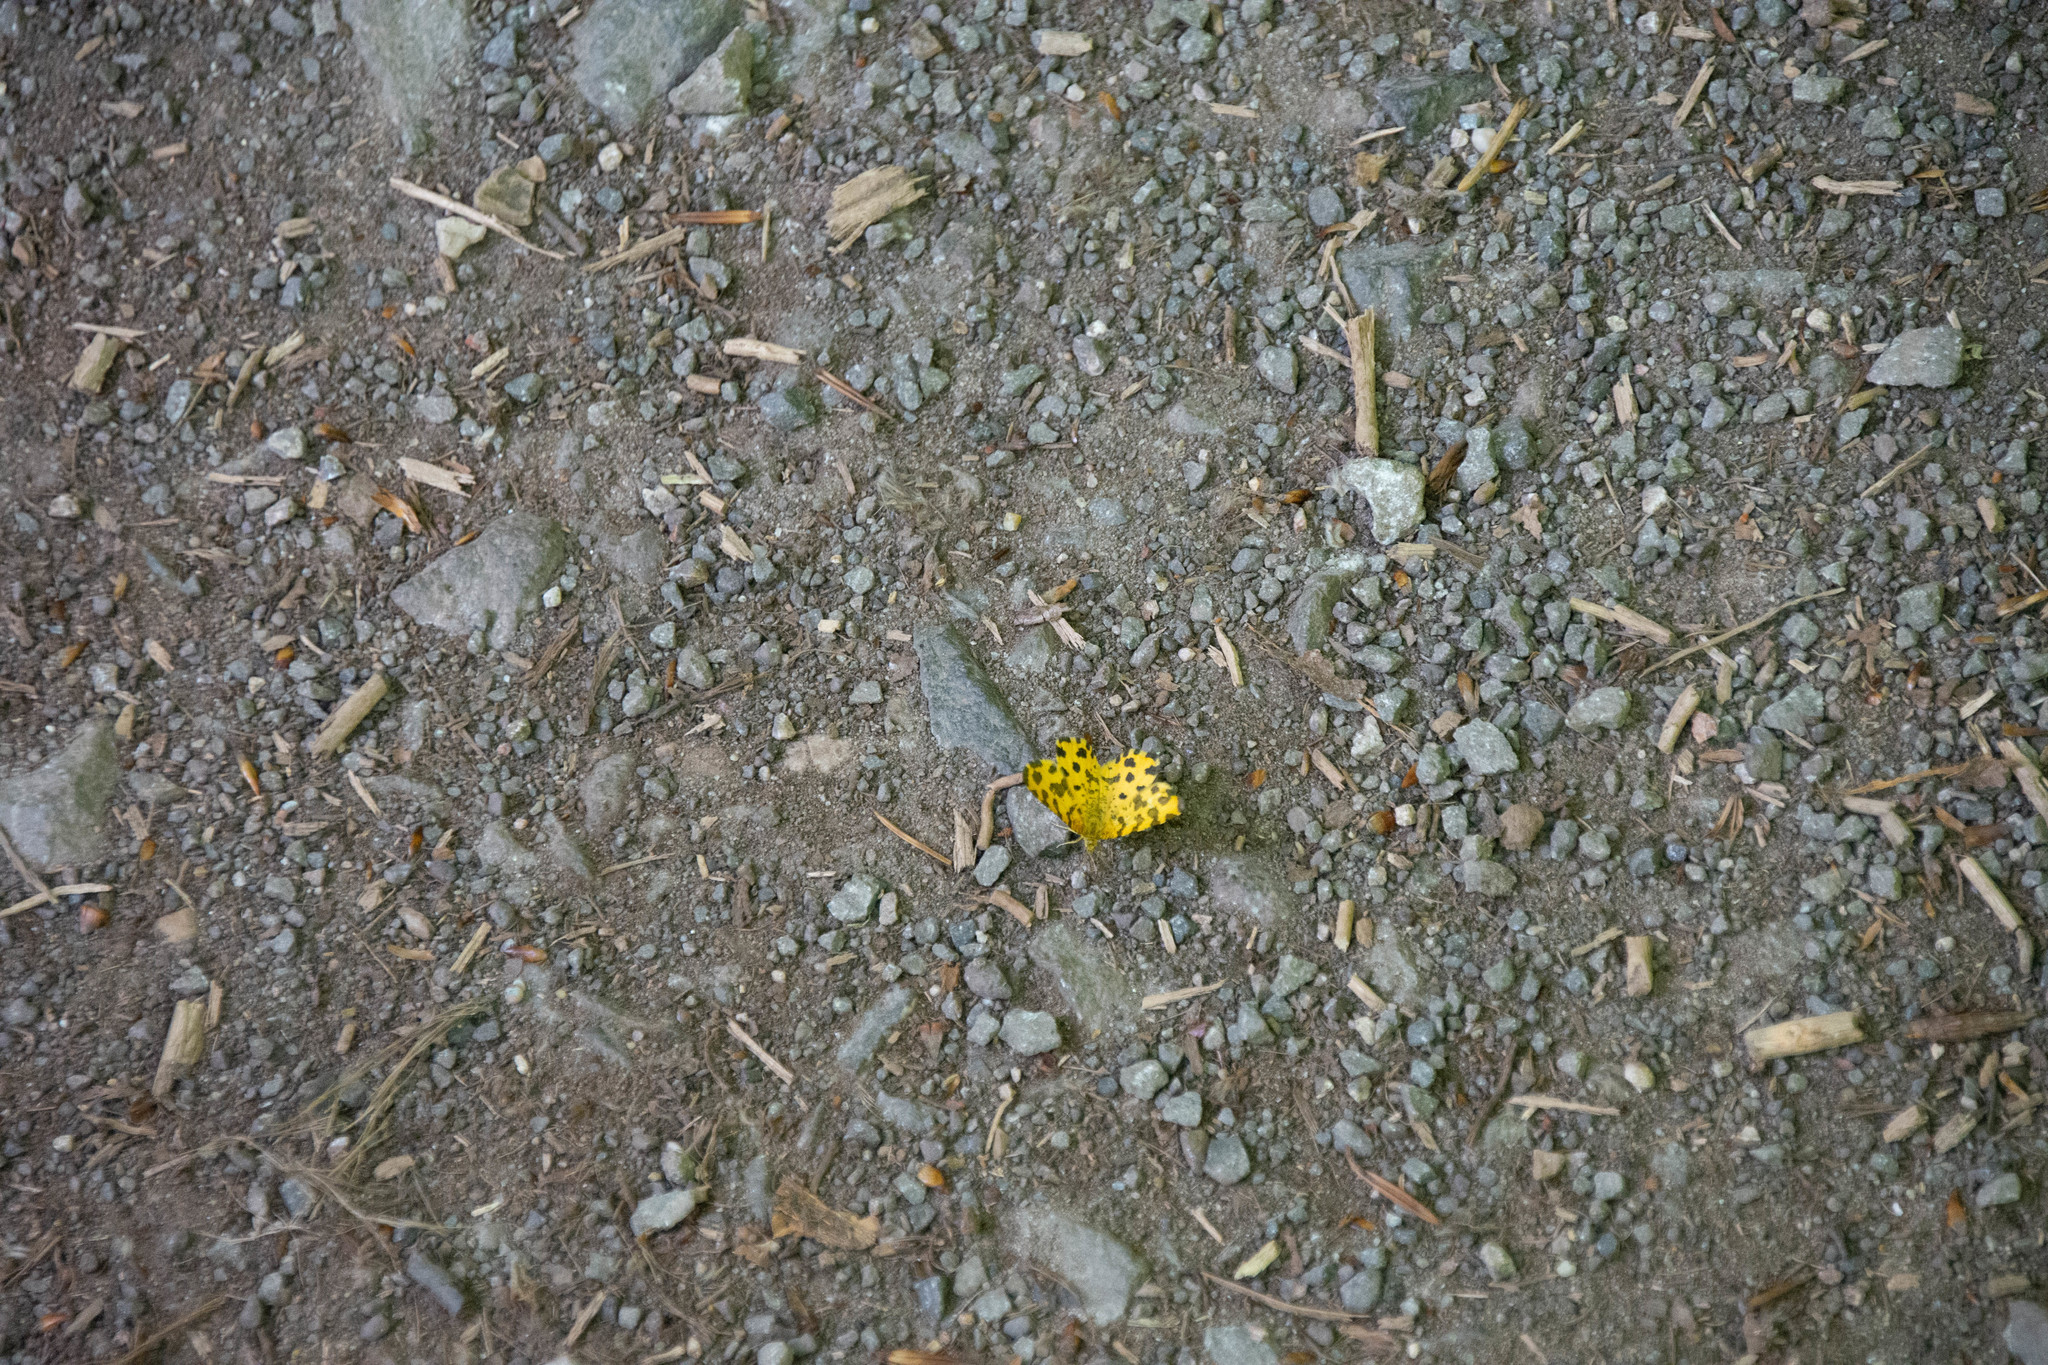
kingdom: Animalia
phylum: Arthropoda
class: Insecta
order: Lepidoptera
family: Geometridae
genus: Pseudopanthera
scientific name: Pseudopanthera macularia
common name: Speckled yellow
